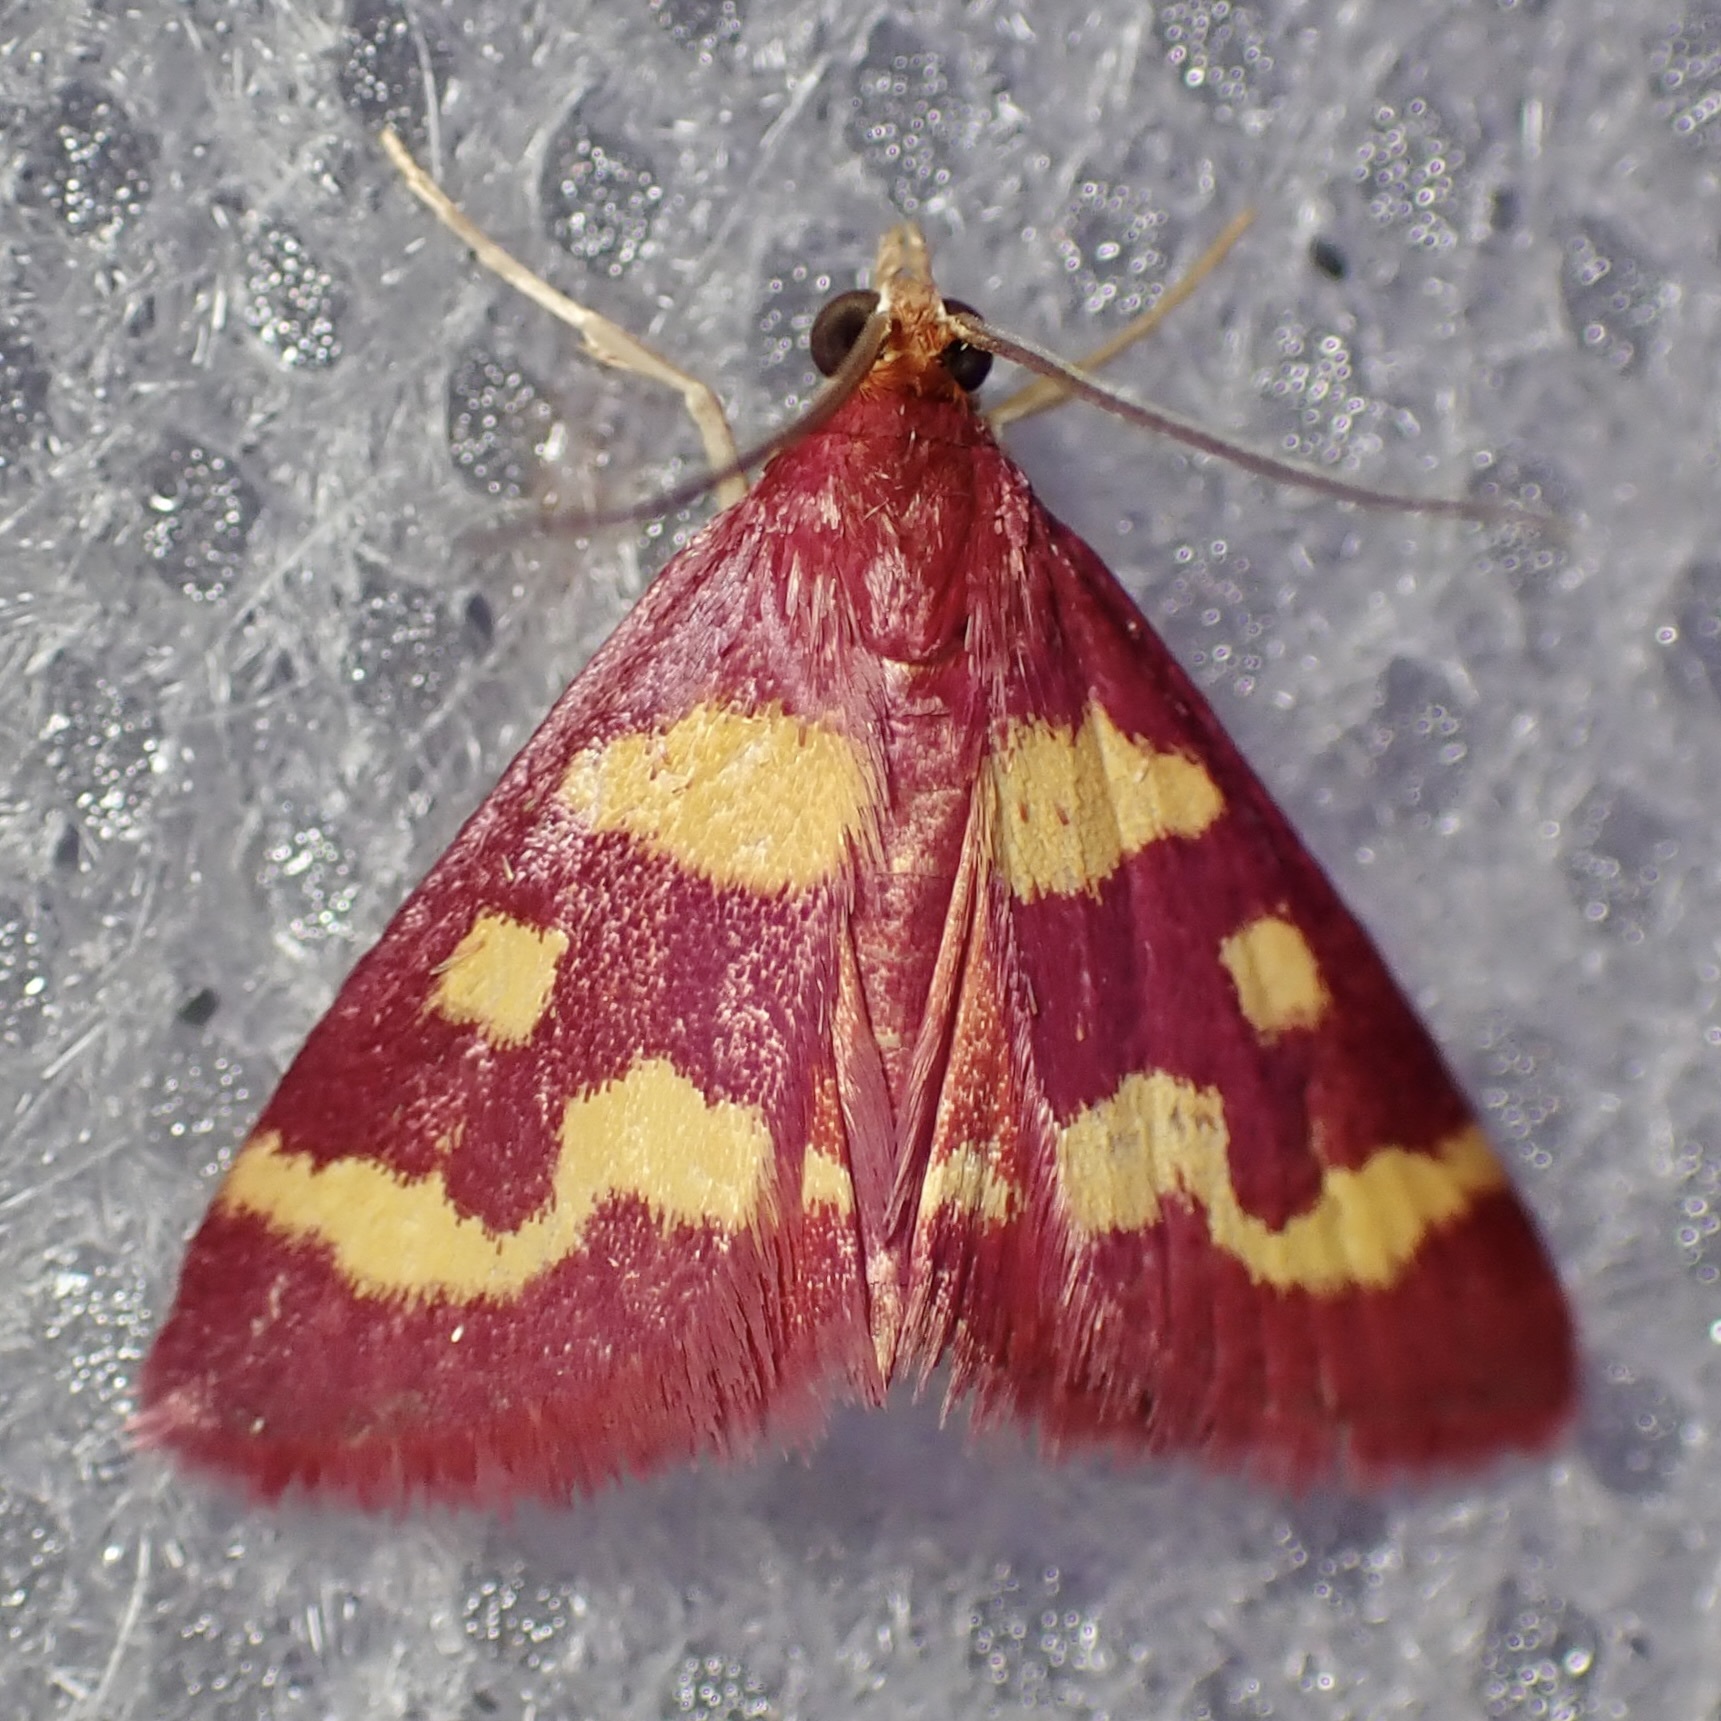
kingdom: Animalia
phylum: Arthropoda
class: Insecta
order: Lepidoptera
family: Crambidae
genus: Pyrausta
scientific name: Pyrausta tyralis
